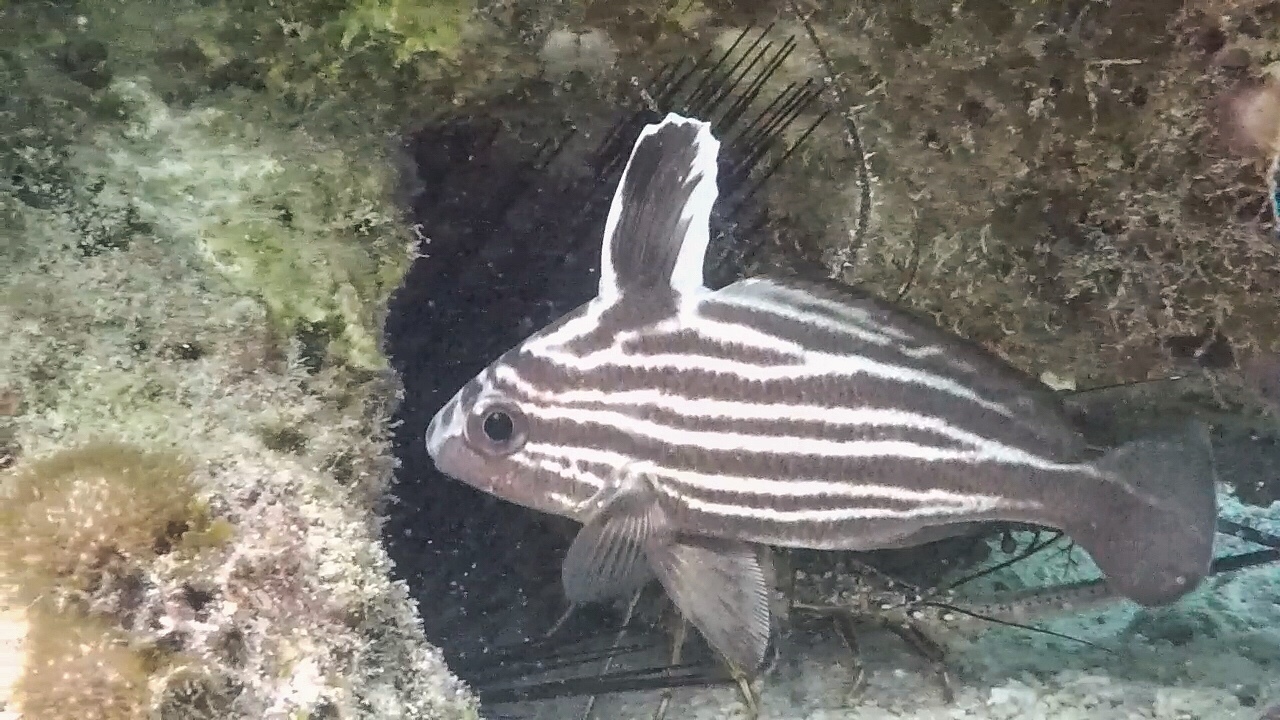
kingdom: Animalia
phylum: Chordata
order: Perciformes
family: Sciaenidae
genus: Pareques
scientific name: Pareques acuminatus
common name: High-hat
